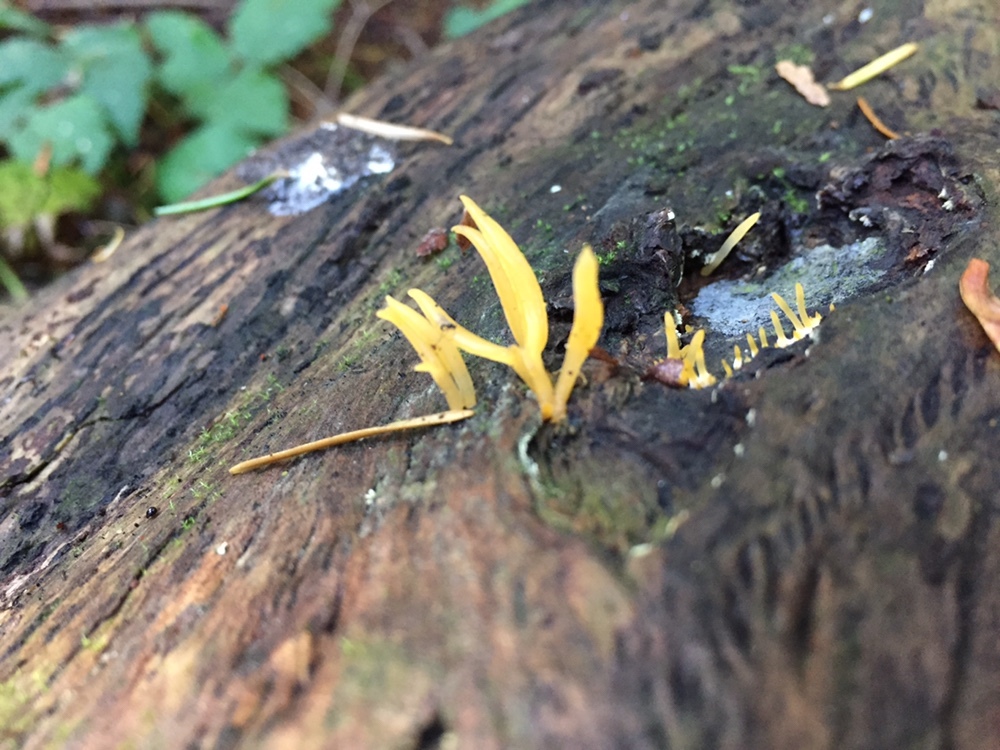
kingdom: Fungi
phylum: Basidiomycota
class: Dacrymycetes
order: Dacrymycetales
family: Dacrymycetaceae
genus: Calocera
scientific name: Calocera cornea
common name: Small stagshorn
